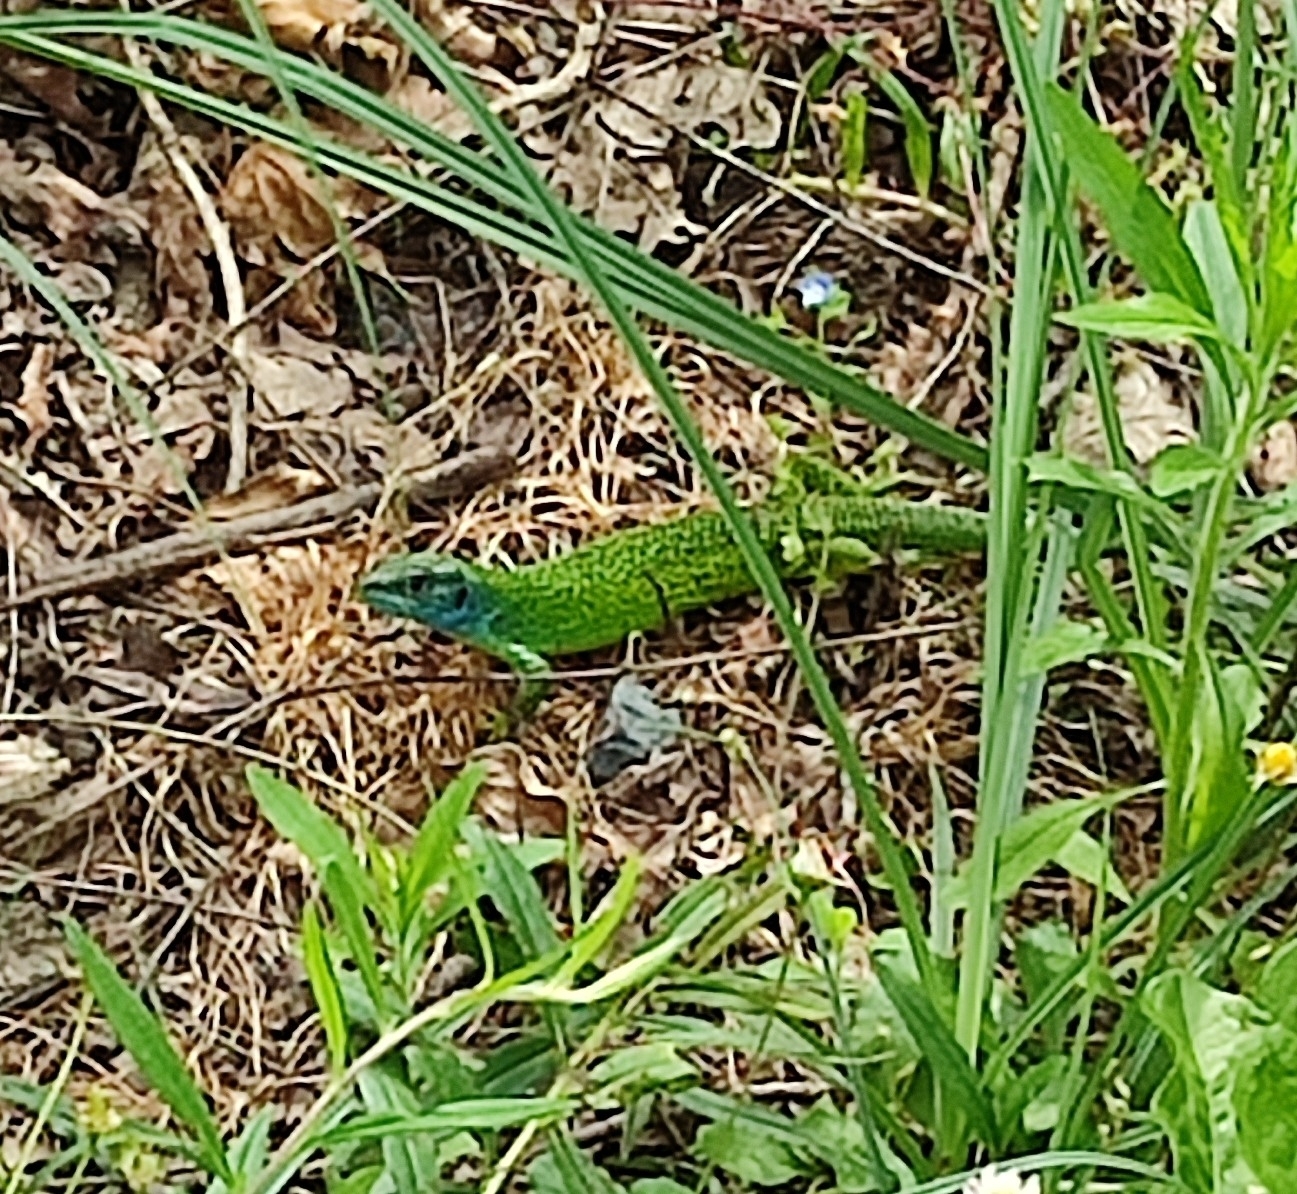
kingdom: Animalia
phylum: Chordata
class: Squamata
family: Lacertidae
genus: Lacerta
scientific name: Lacerta bilineata
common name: Western green lizard
